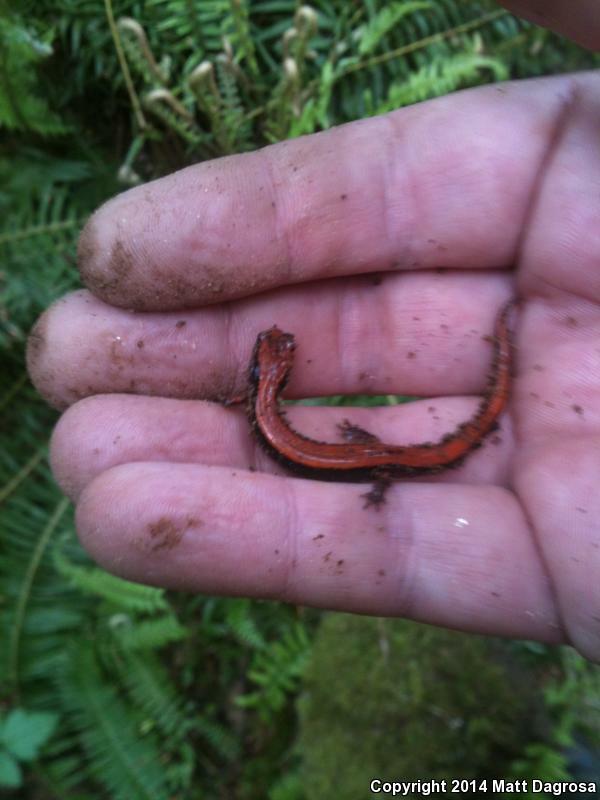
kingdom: Animalia
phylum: Chordata
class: Amphibia
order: Caudata
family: Plethodontidae
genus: Plethodon
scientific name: Plethodon vehiculum
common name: Western red-backed salamander
